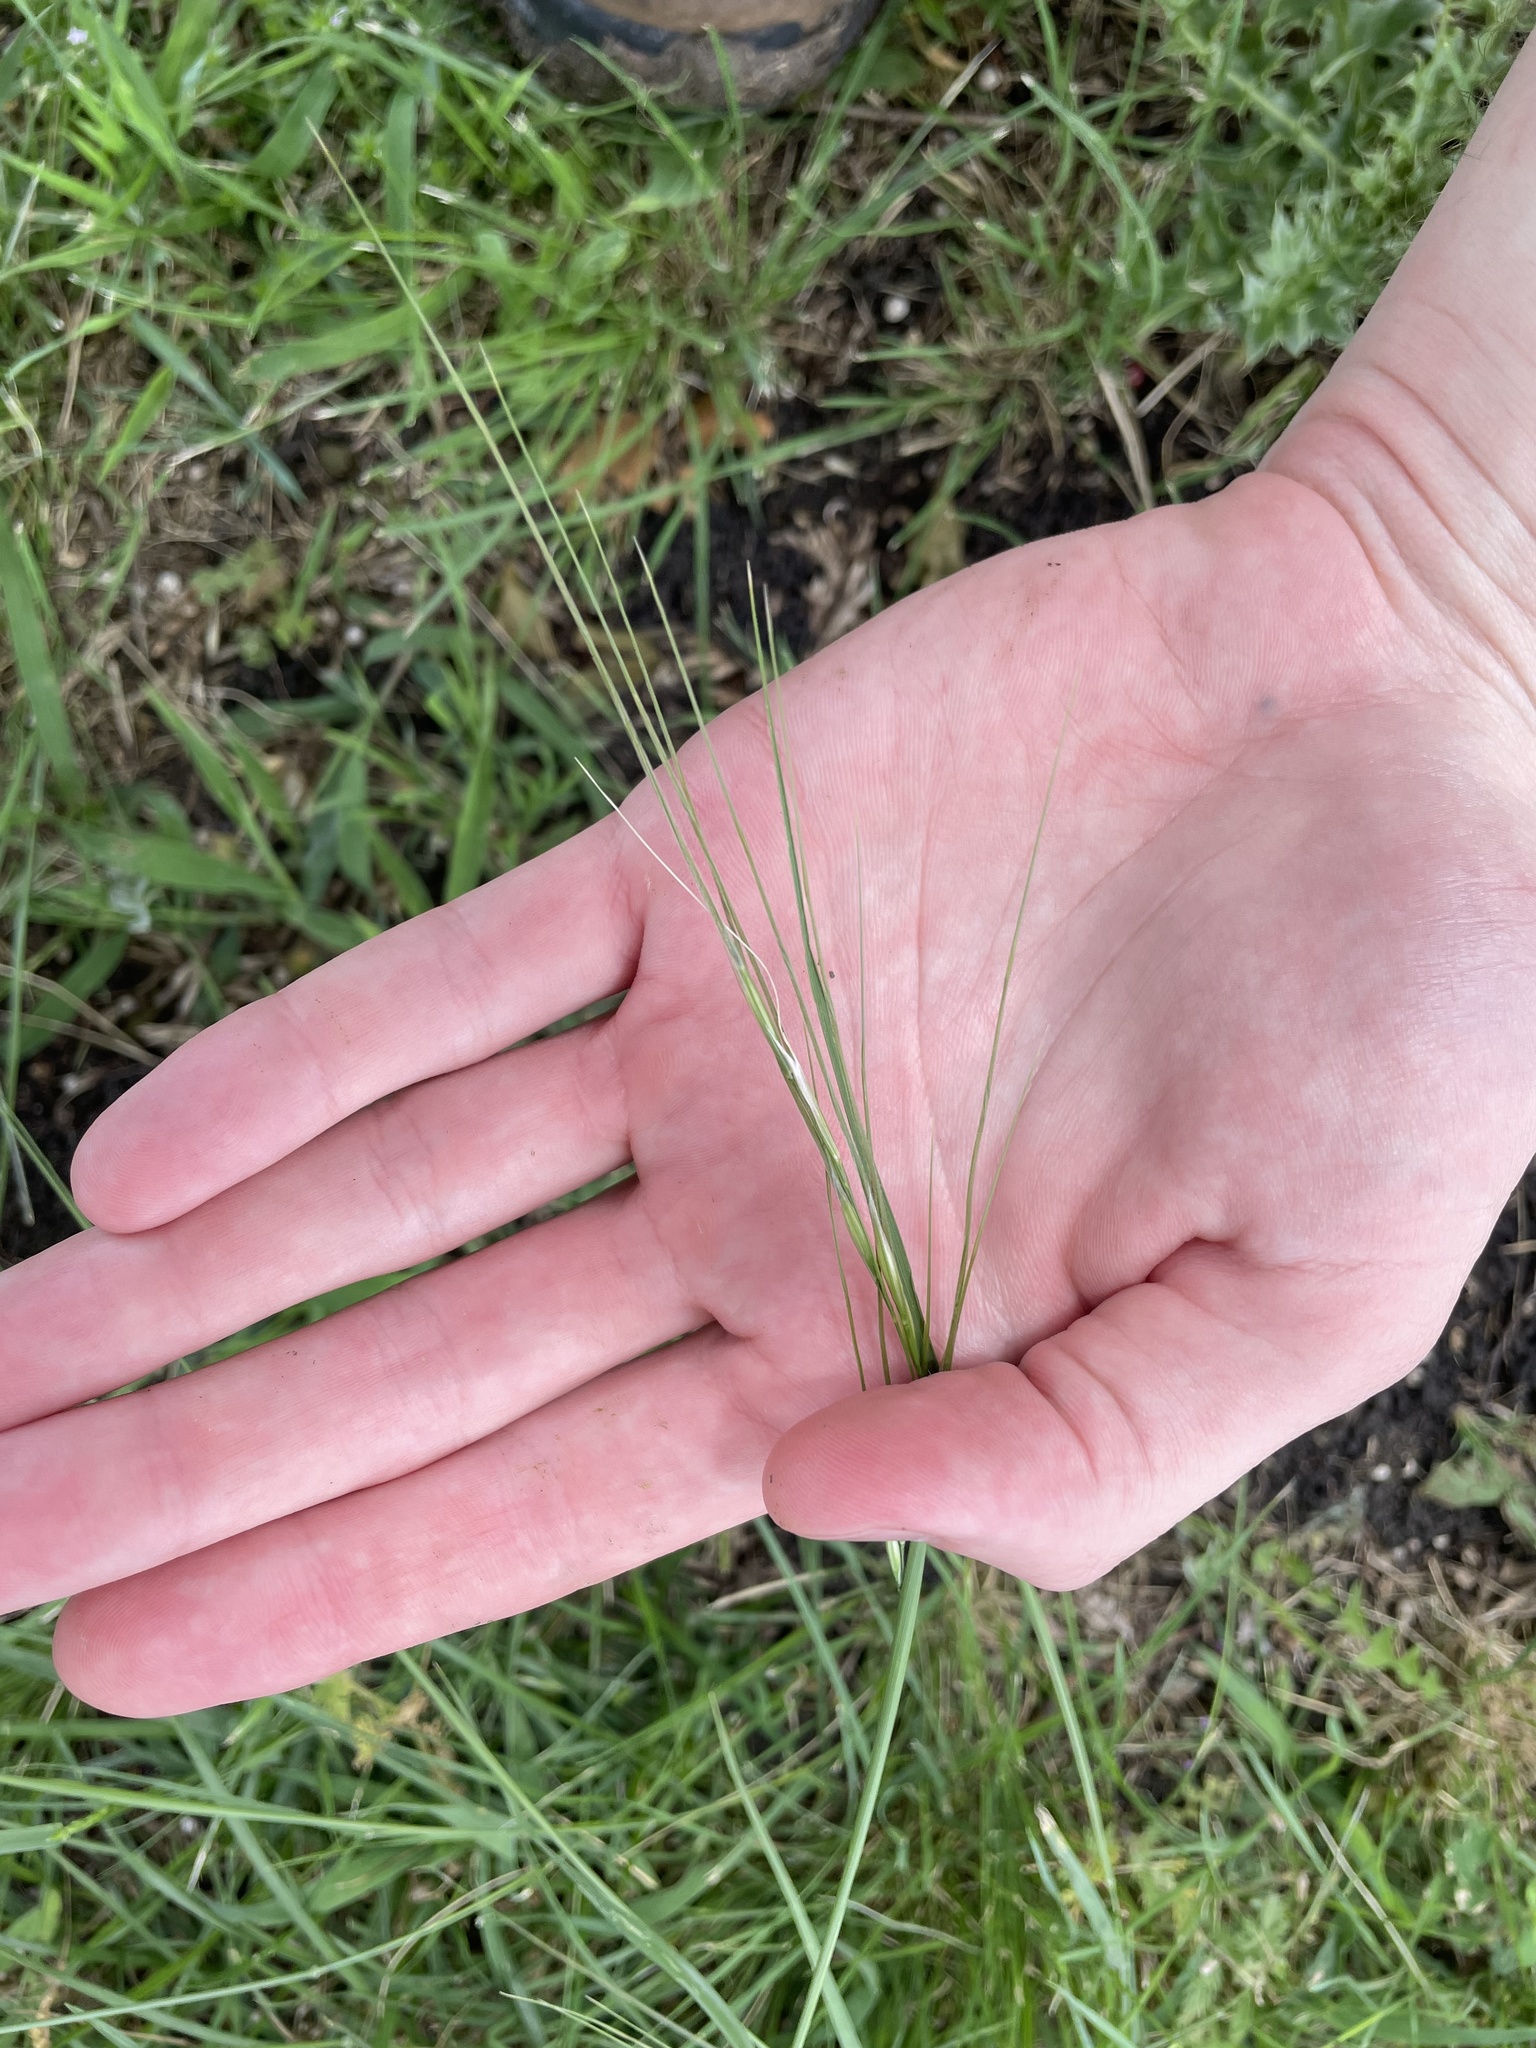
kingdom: Plantae
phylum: Tracheophyta
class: Liliopsida
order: Poales
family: Poaceae
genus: Nassella
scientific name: Nassella leucotricha
